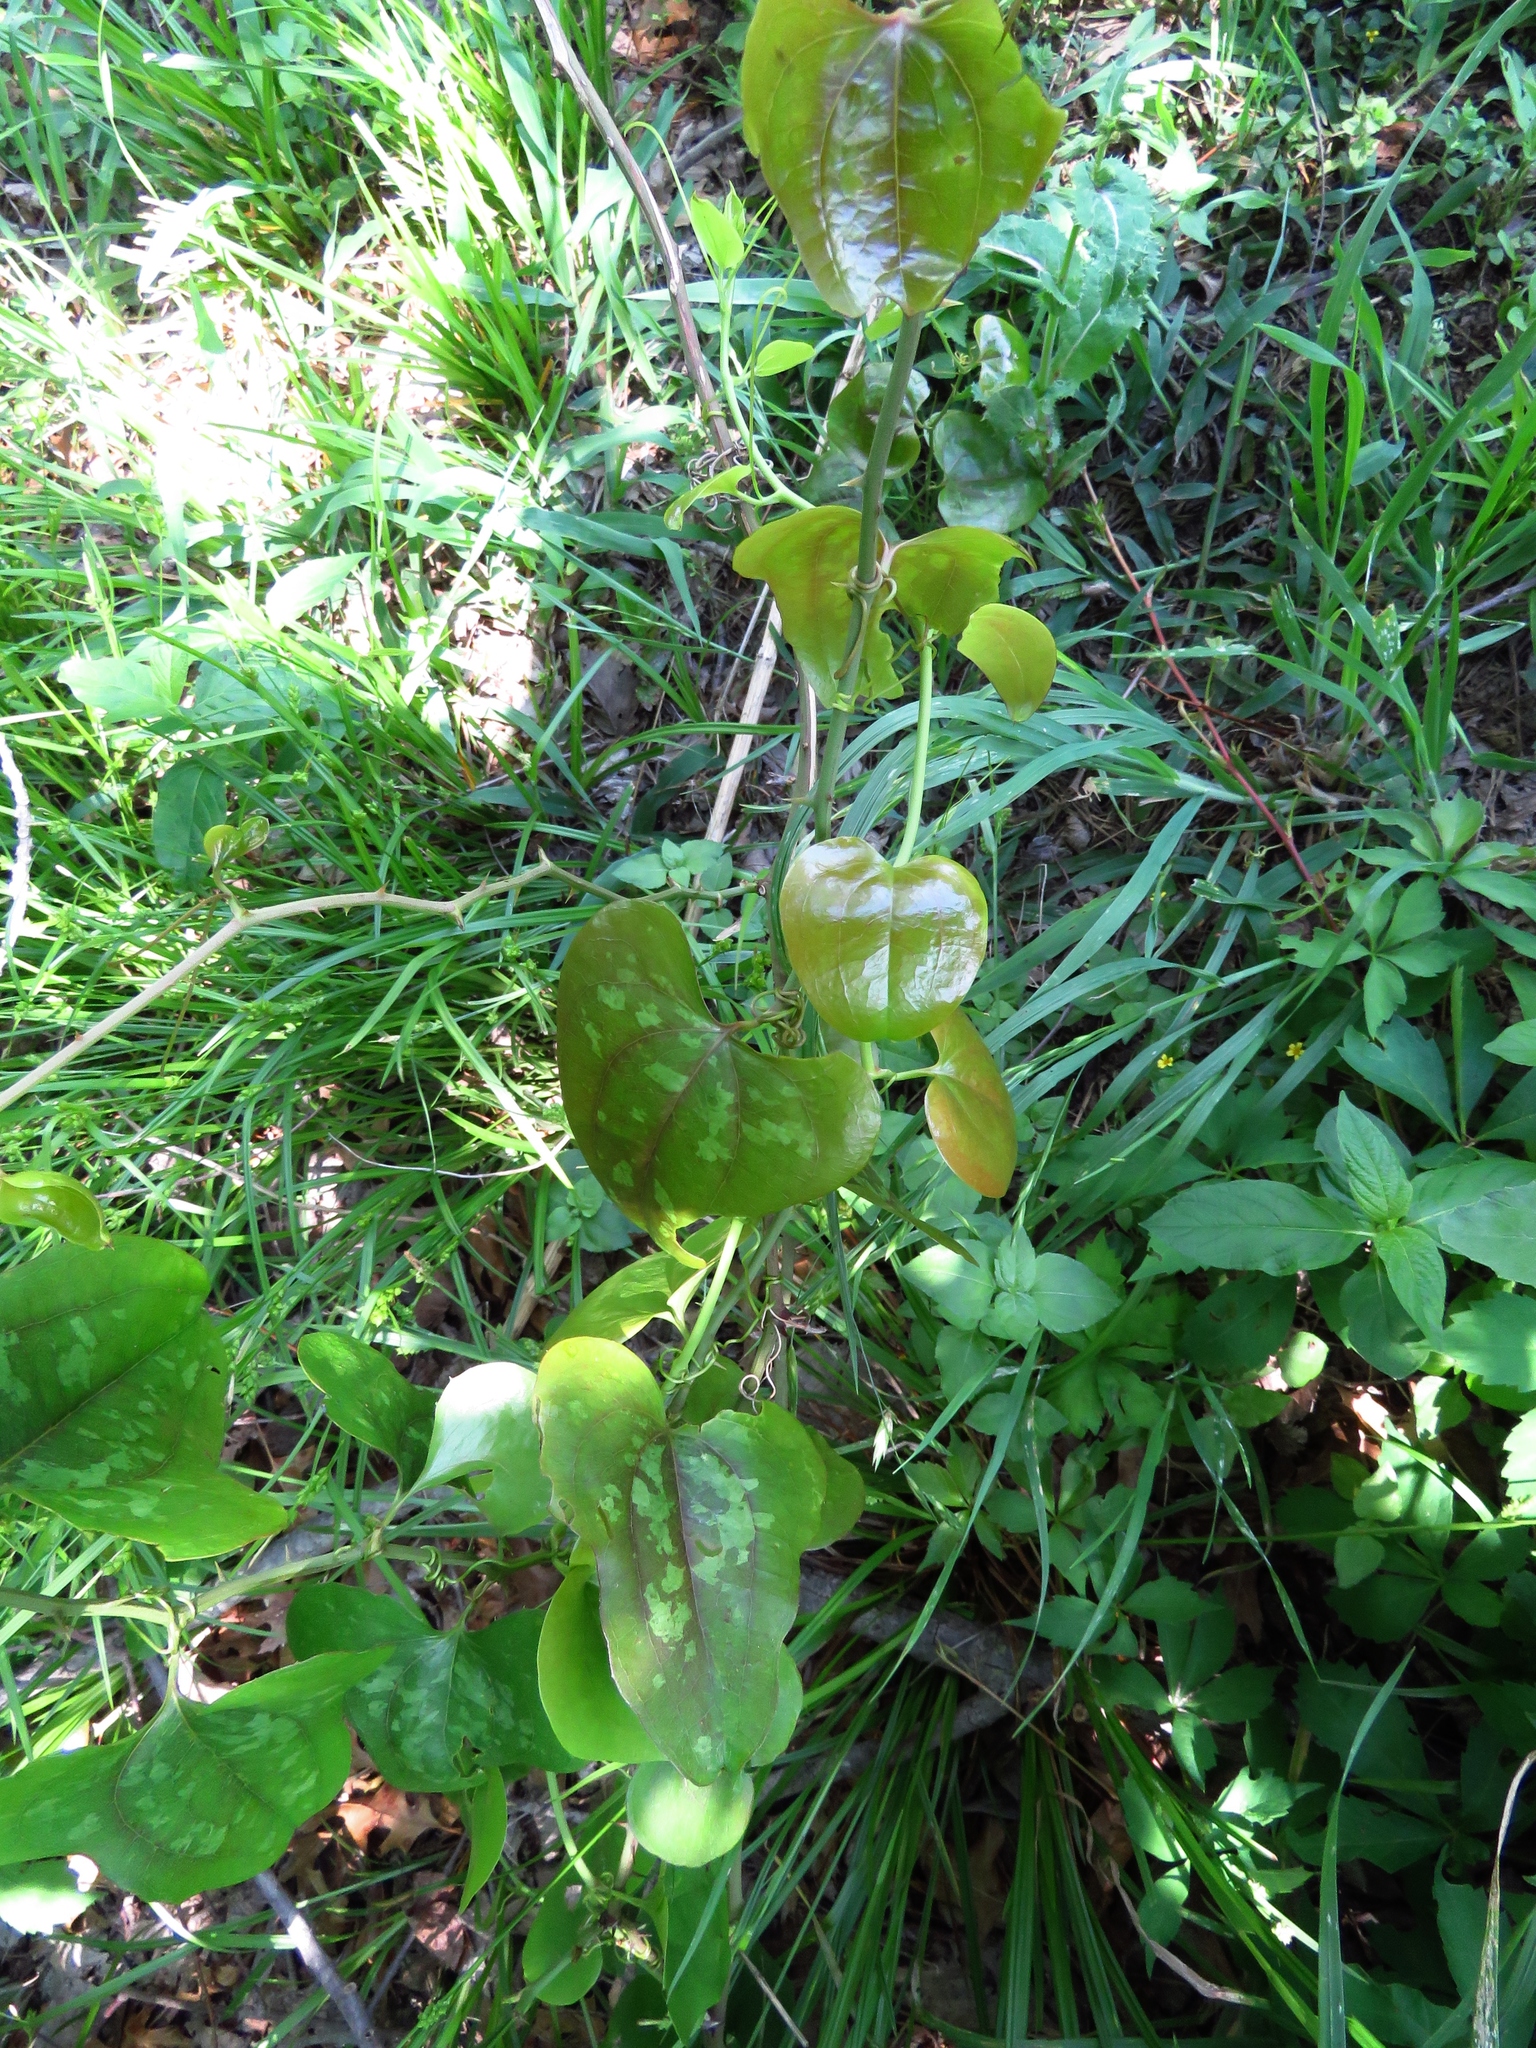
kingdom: Plantae
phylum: Tracheophyta
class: Liliopsida
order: Liliales
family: Smilacaceae
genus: Smilax
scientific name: Smilax bona-nox
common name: Catbrier
